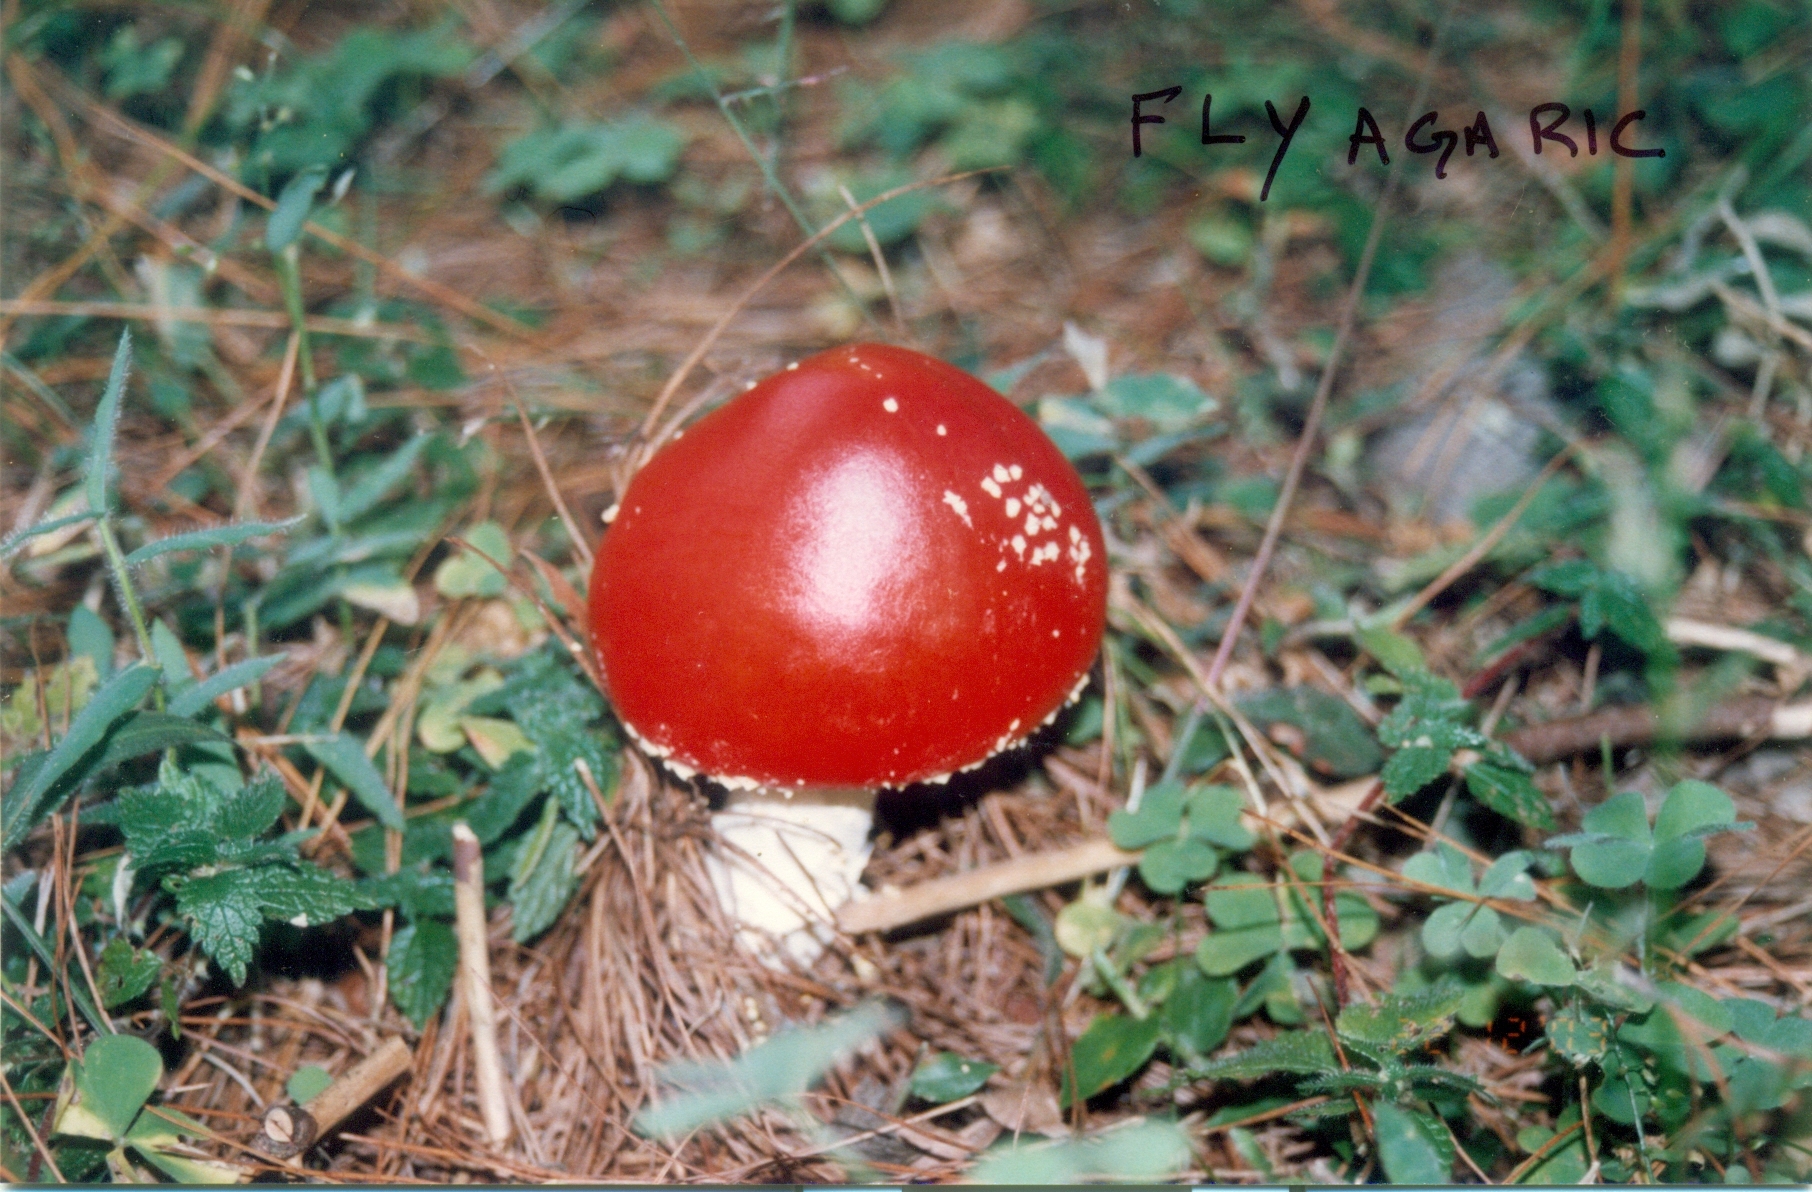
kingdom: Fungi
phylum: Basidiomycota
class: Agaricomycetes
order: Agaricales
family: Amanitaceae
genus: Amanita
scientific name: Amanita muscaria
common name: Fly agaric
